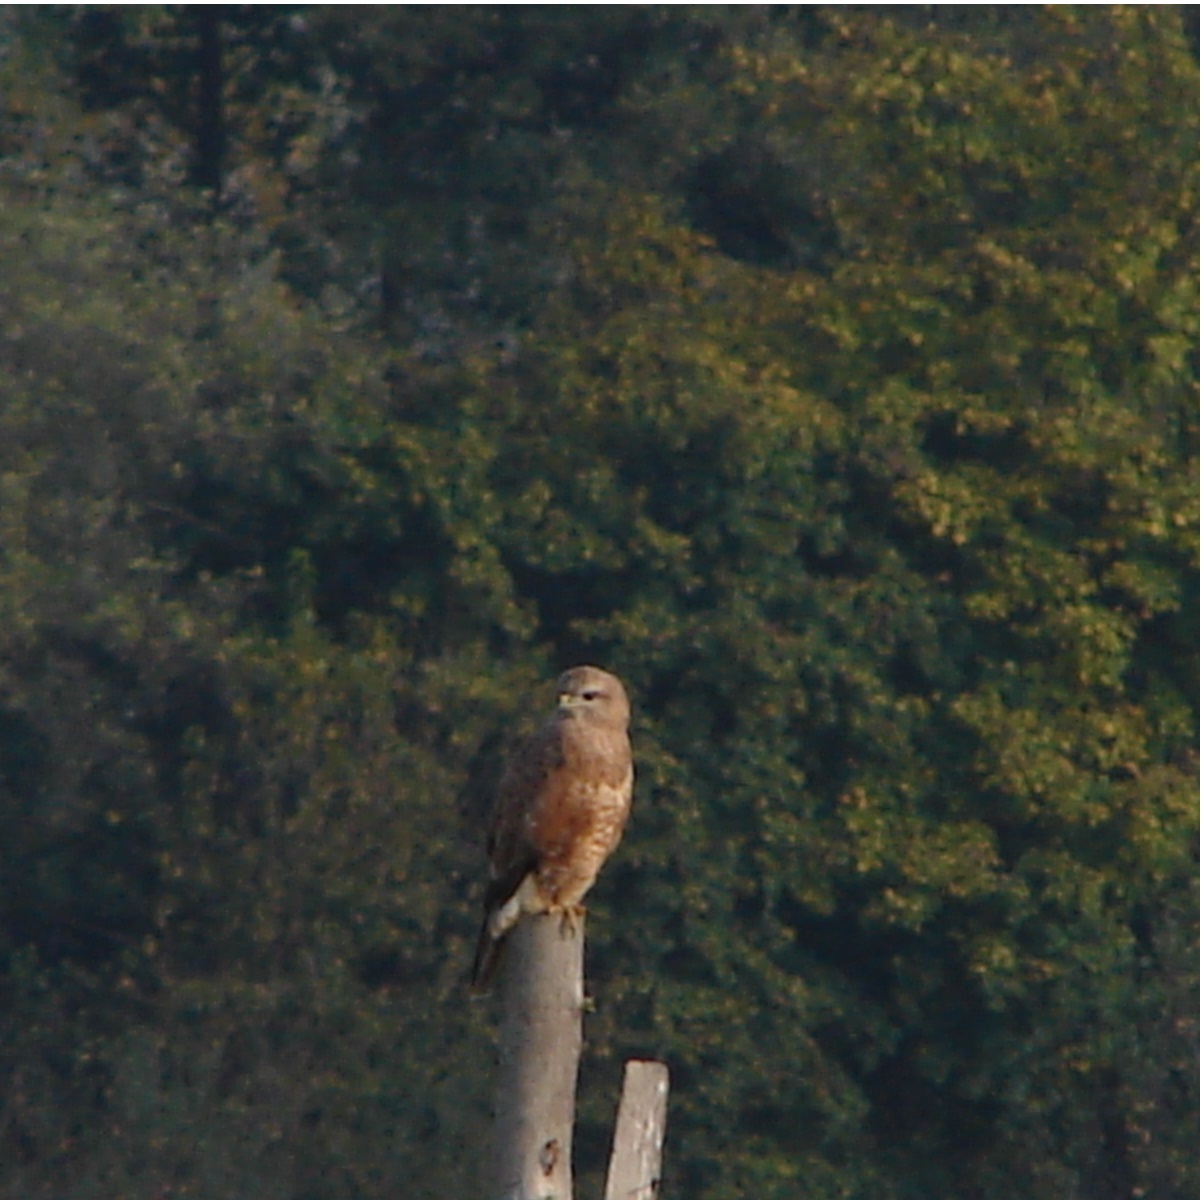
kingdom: Animalia
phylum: Chordata
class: Aves
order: Accipitriformes
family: Accipitridae
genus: Buteo
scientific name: Buteo buteo
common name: Common buzzard
